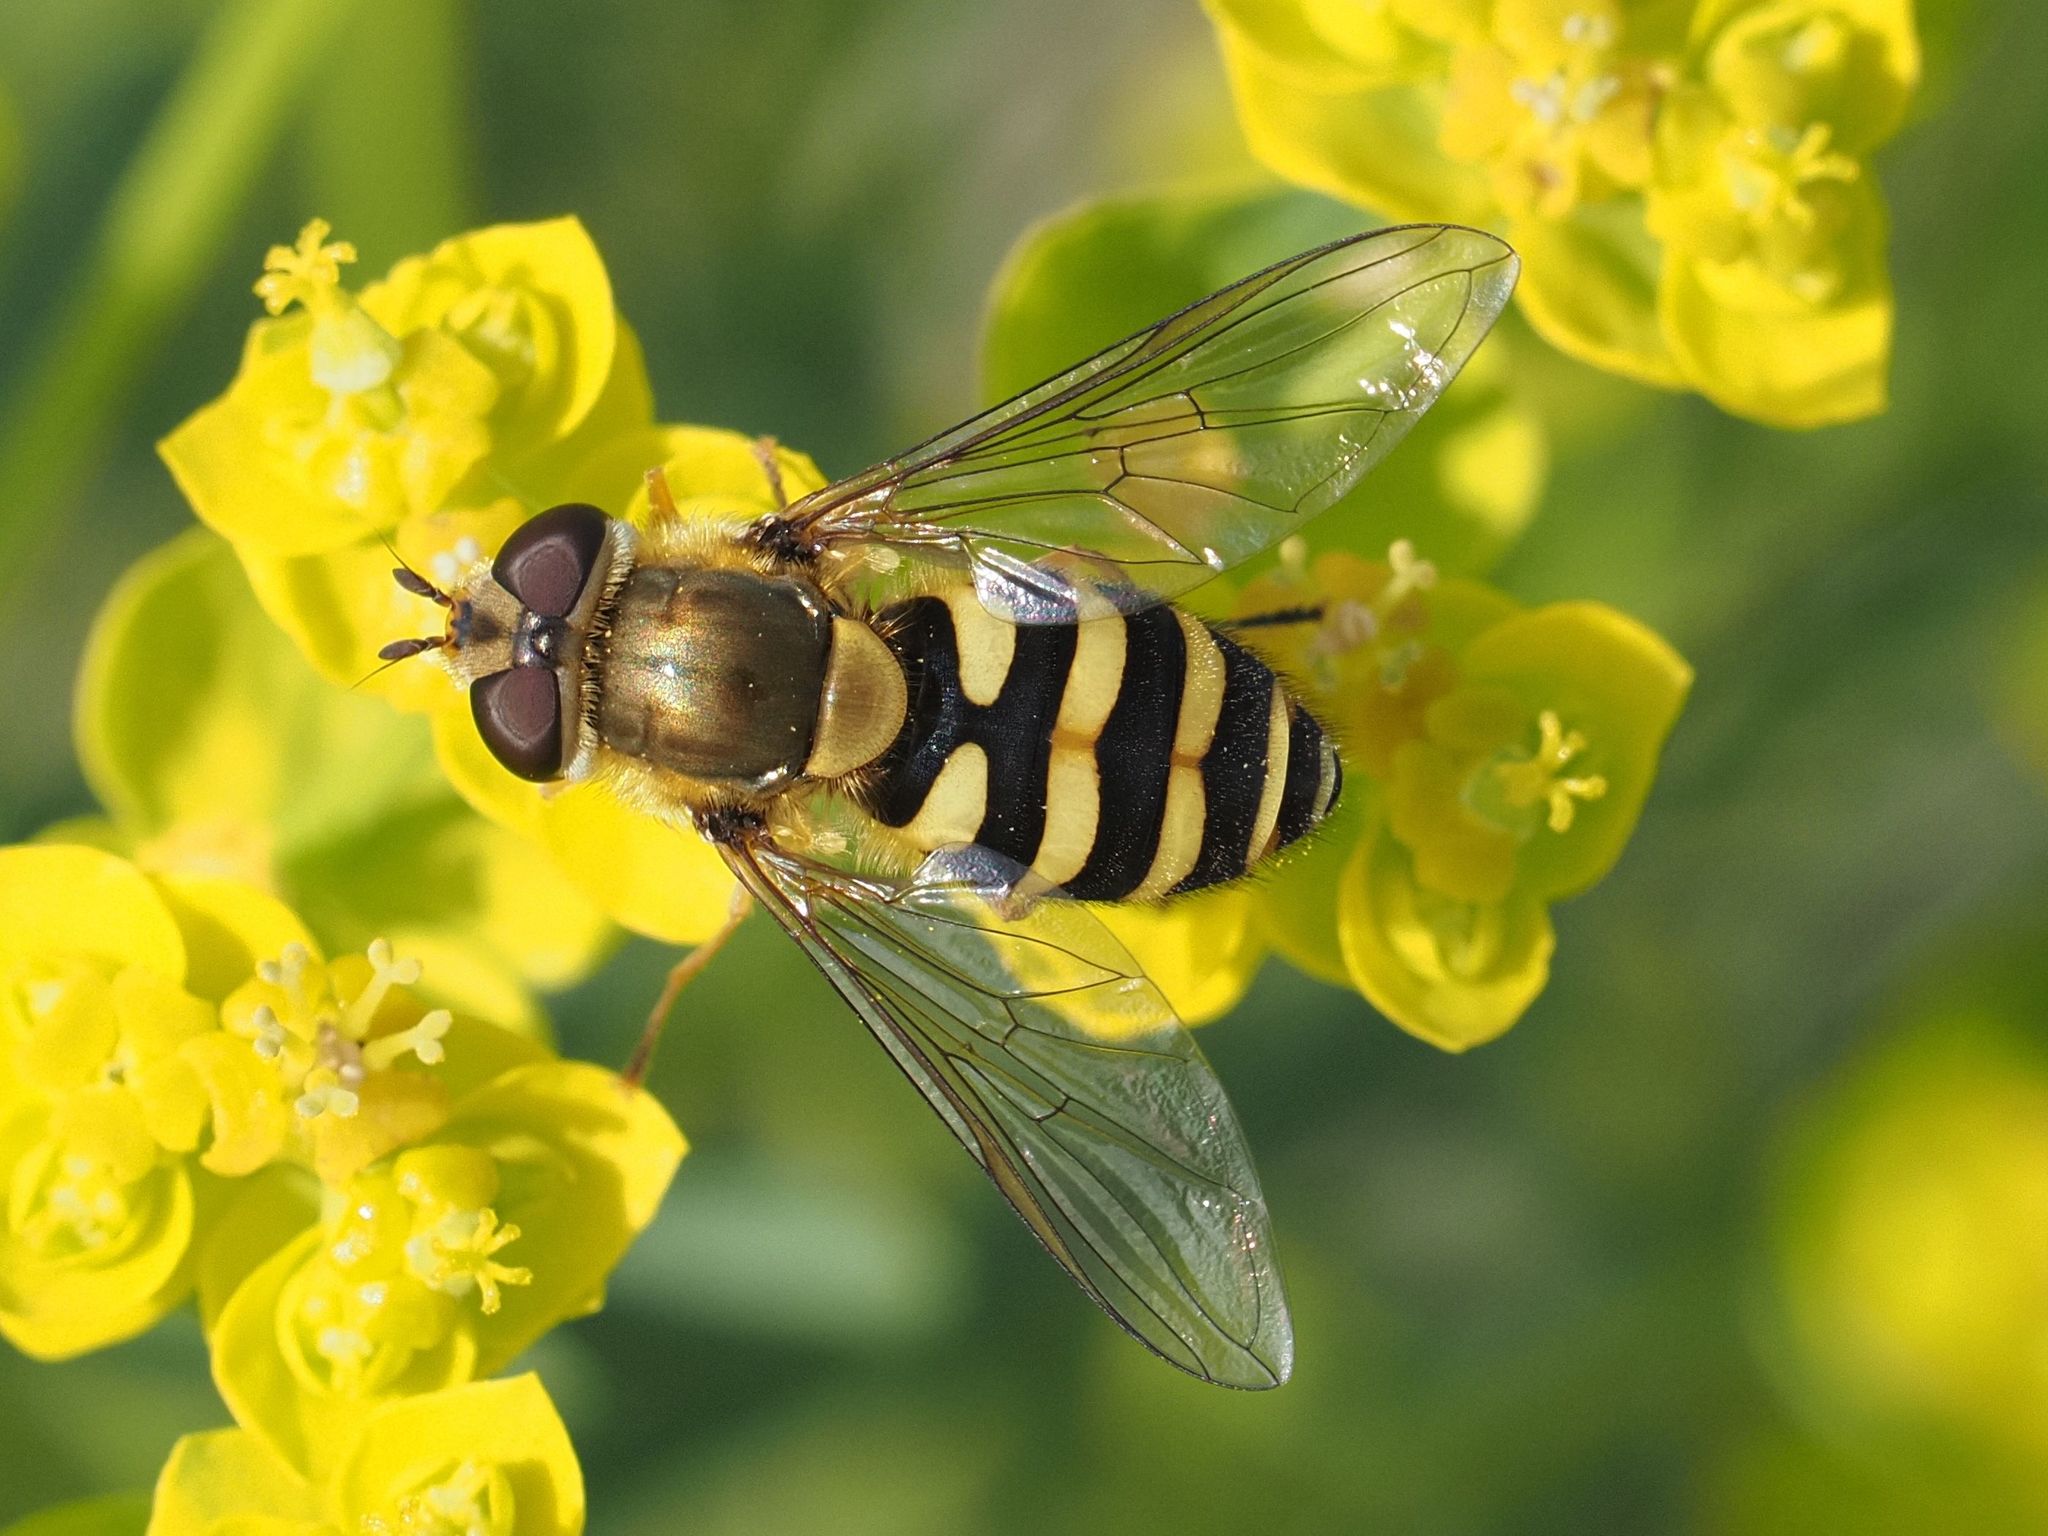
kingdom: Animalia
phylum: Arthropoda
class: Insecta
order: Diptera
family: Syrphidae
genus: Syrphus
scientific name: Syrphus
